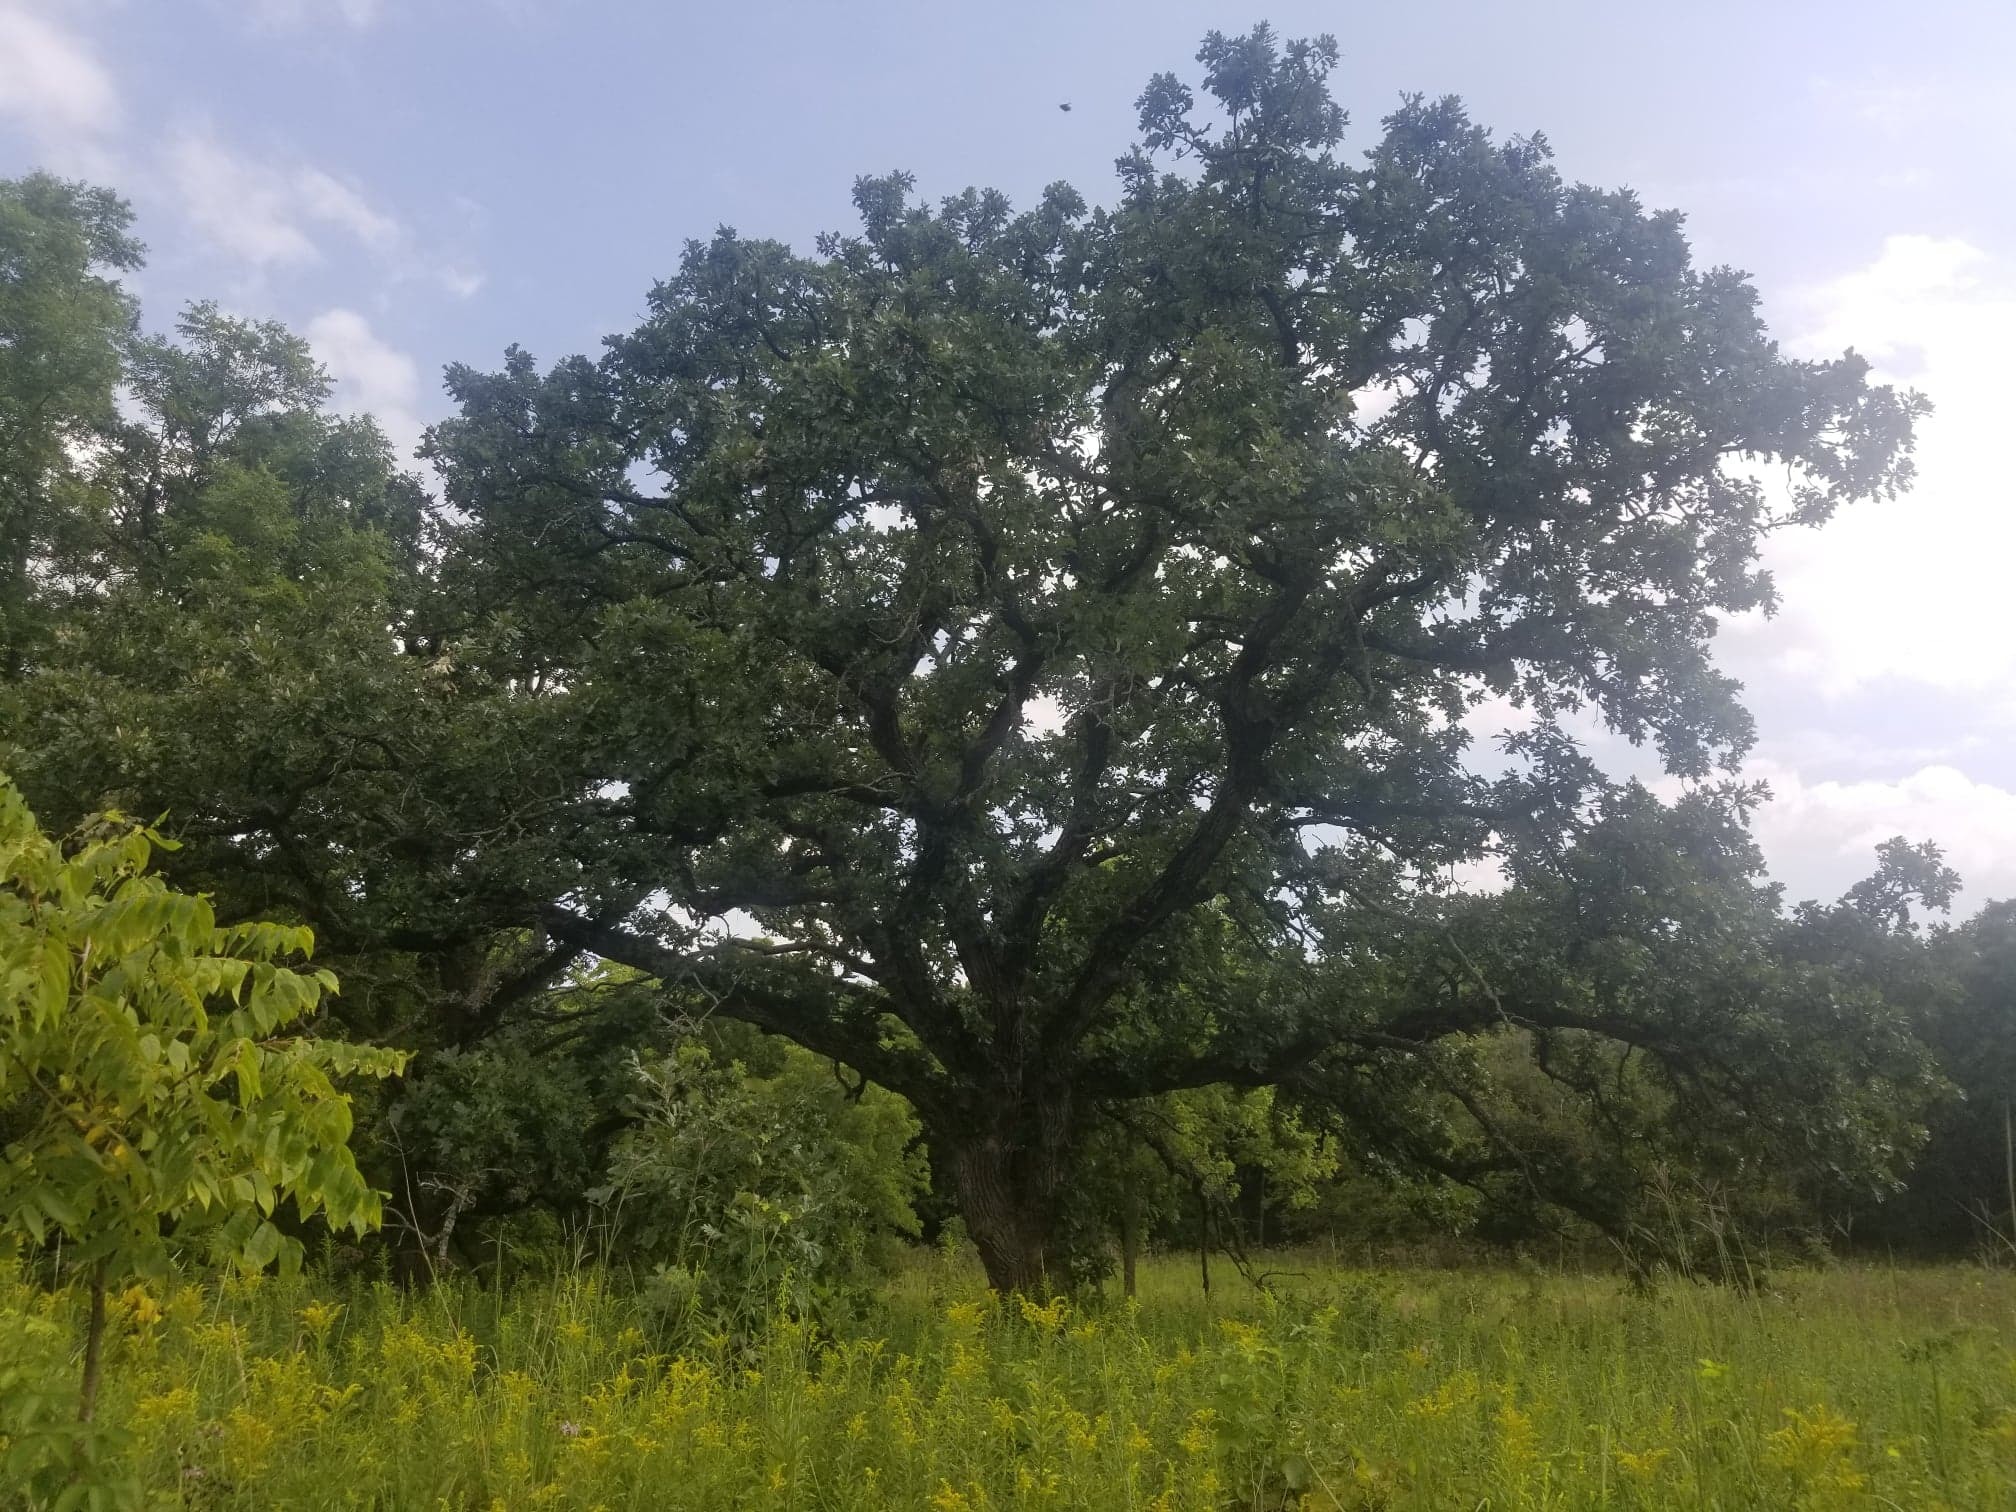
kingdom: Plantae
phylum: Tracheophyta
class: Magnoliopsida
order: Fagales
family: Fagaceae
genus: Quercus
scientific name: Quercus macrocarpa
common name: Bur oak
